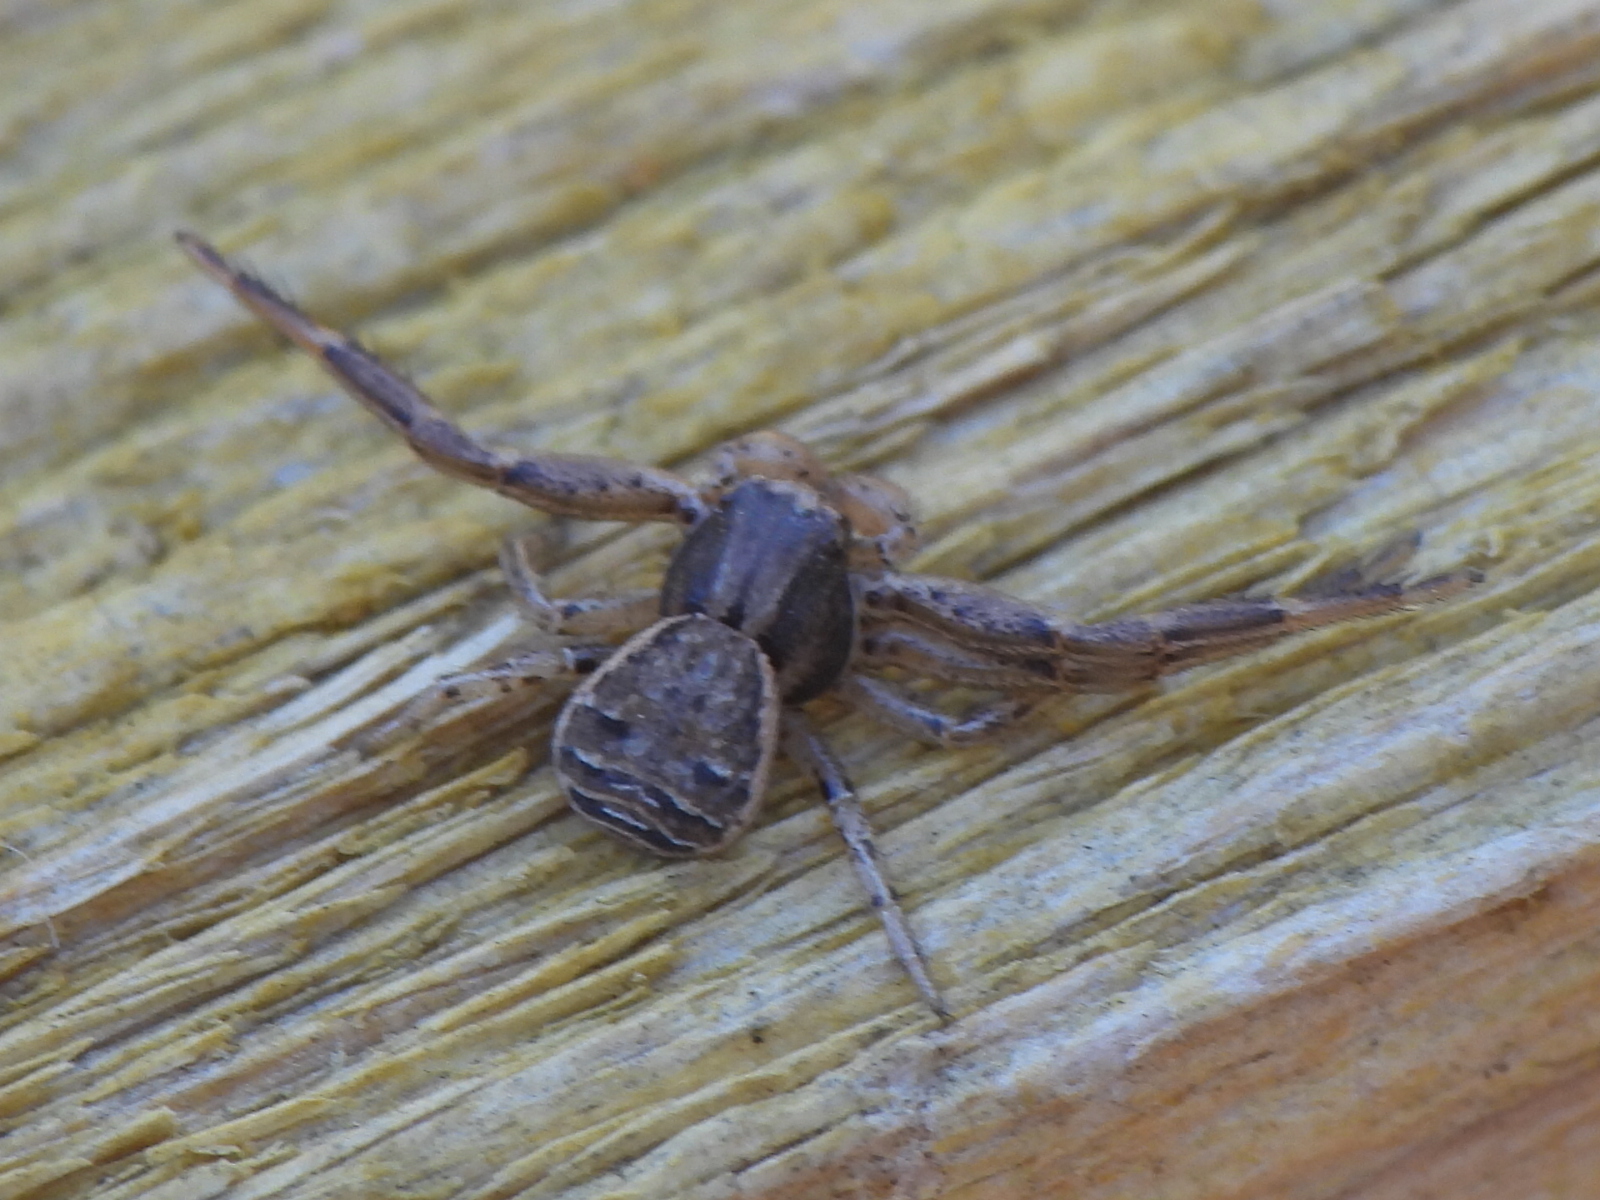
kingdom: Animalia
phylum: Arthropoda
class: Arachnida
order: Araneae
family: Thomisidae
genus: Xysticus
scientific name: Xysticus texanus
